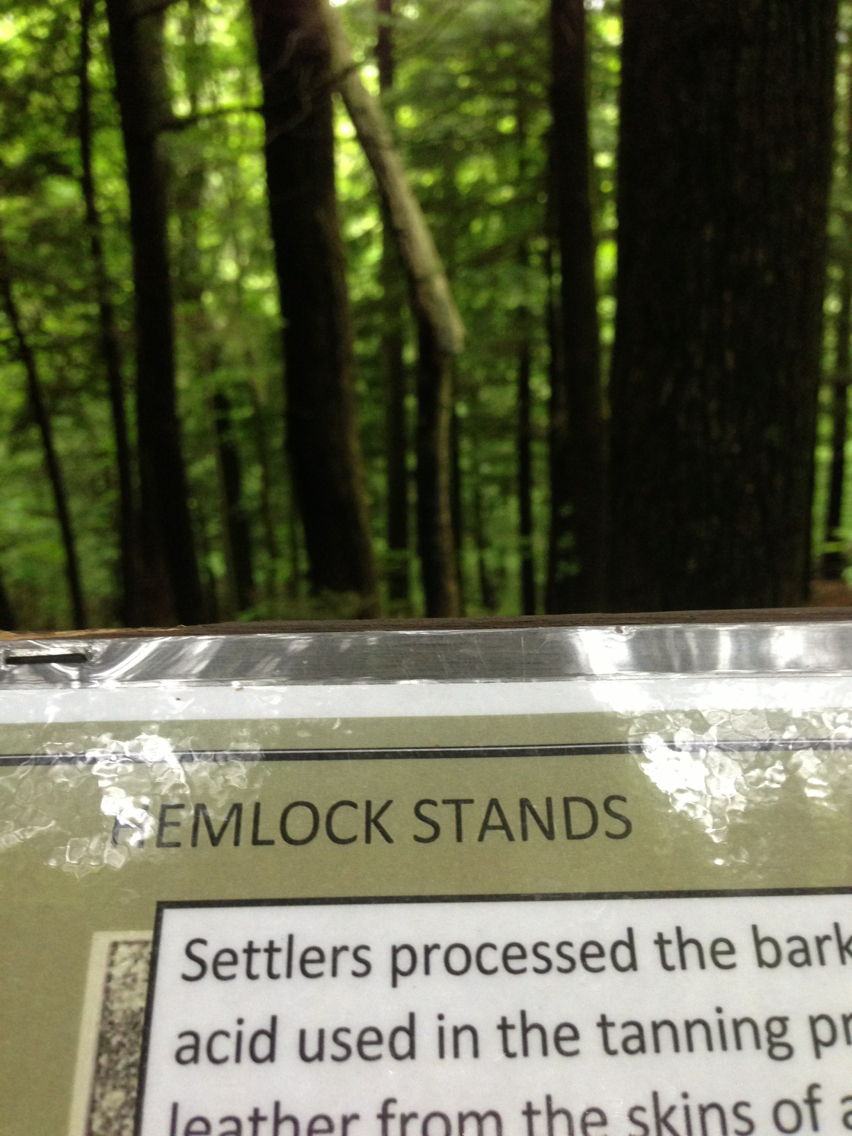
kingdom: Plantae
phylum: Tracheophyta
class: Pinopsida
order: Pinales
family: Pinaceae
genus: Tsuga
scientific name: Tsuga canadensis
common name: Eastern hemlock
